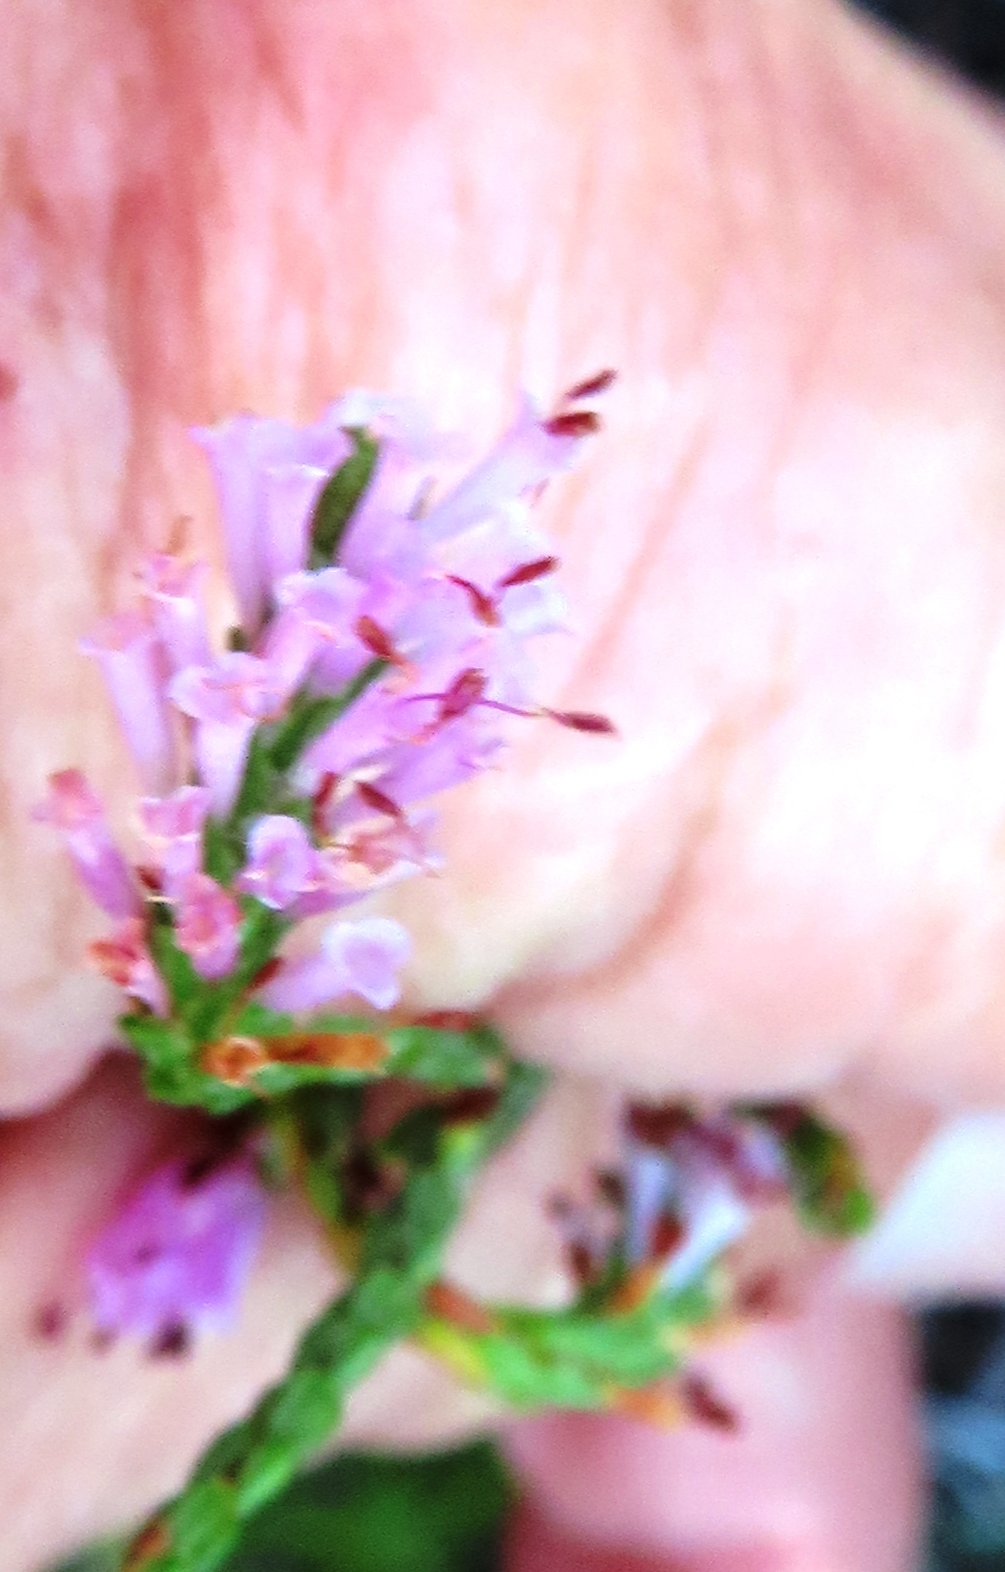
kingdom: Plantae
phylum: Tracheophyta
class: Magnoliopsida
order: Ericales
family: Ericaceae
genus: Erica
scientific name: Erica innovans
